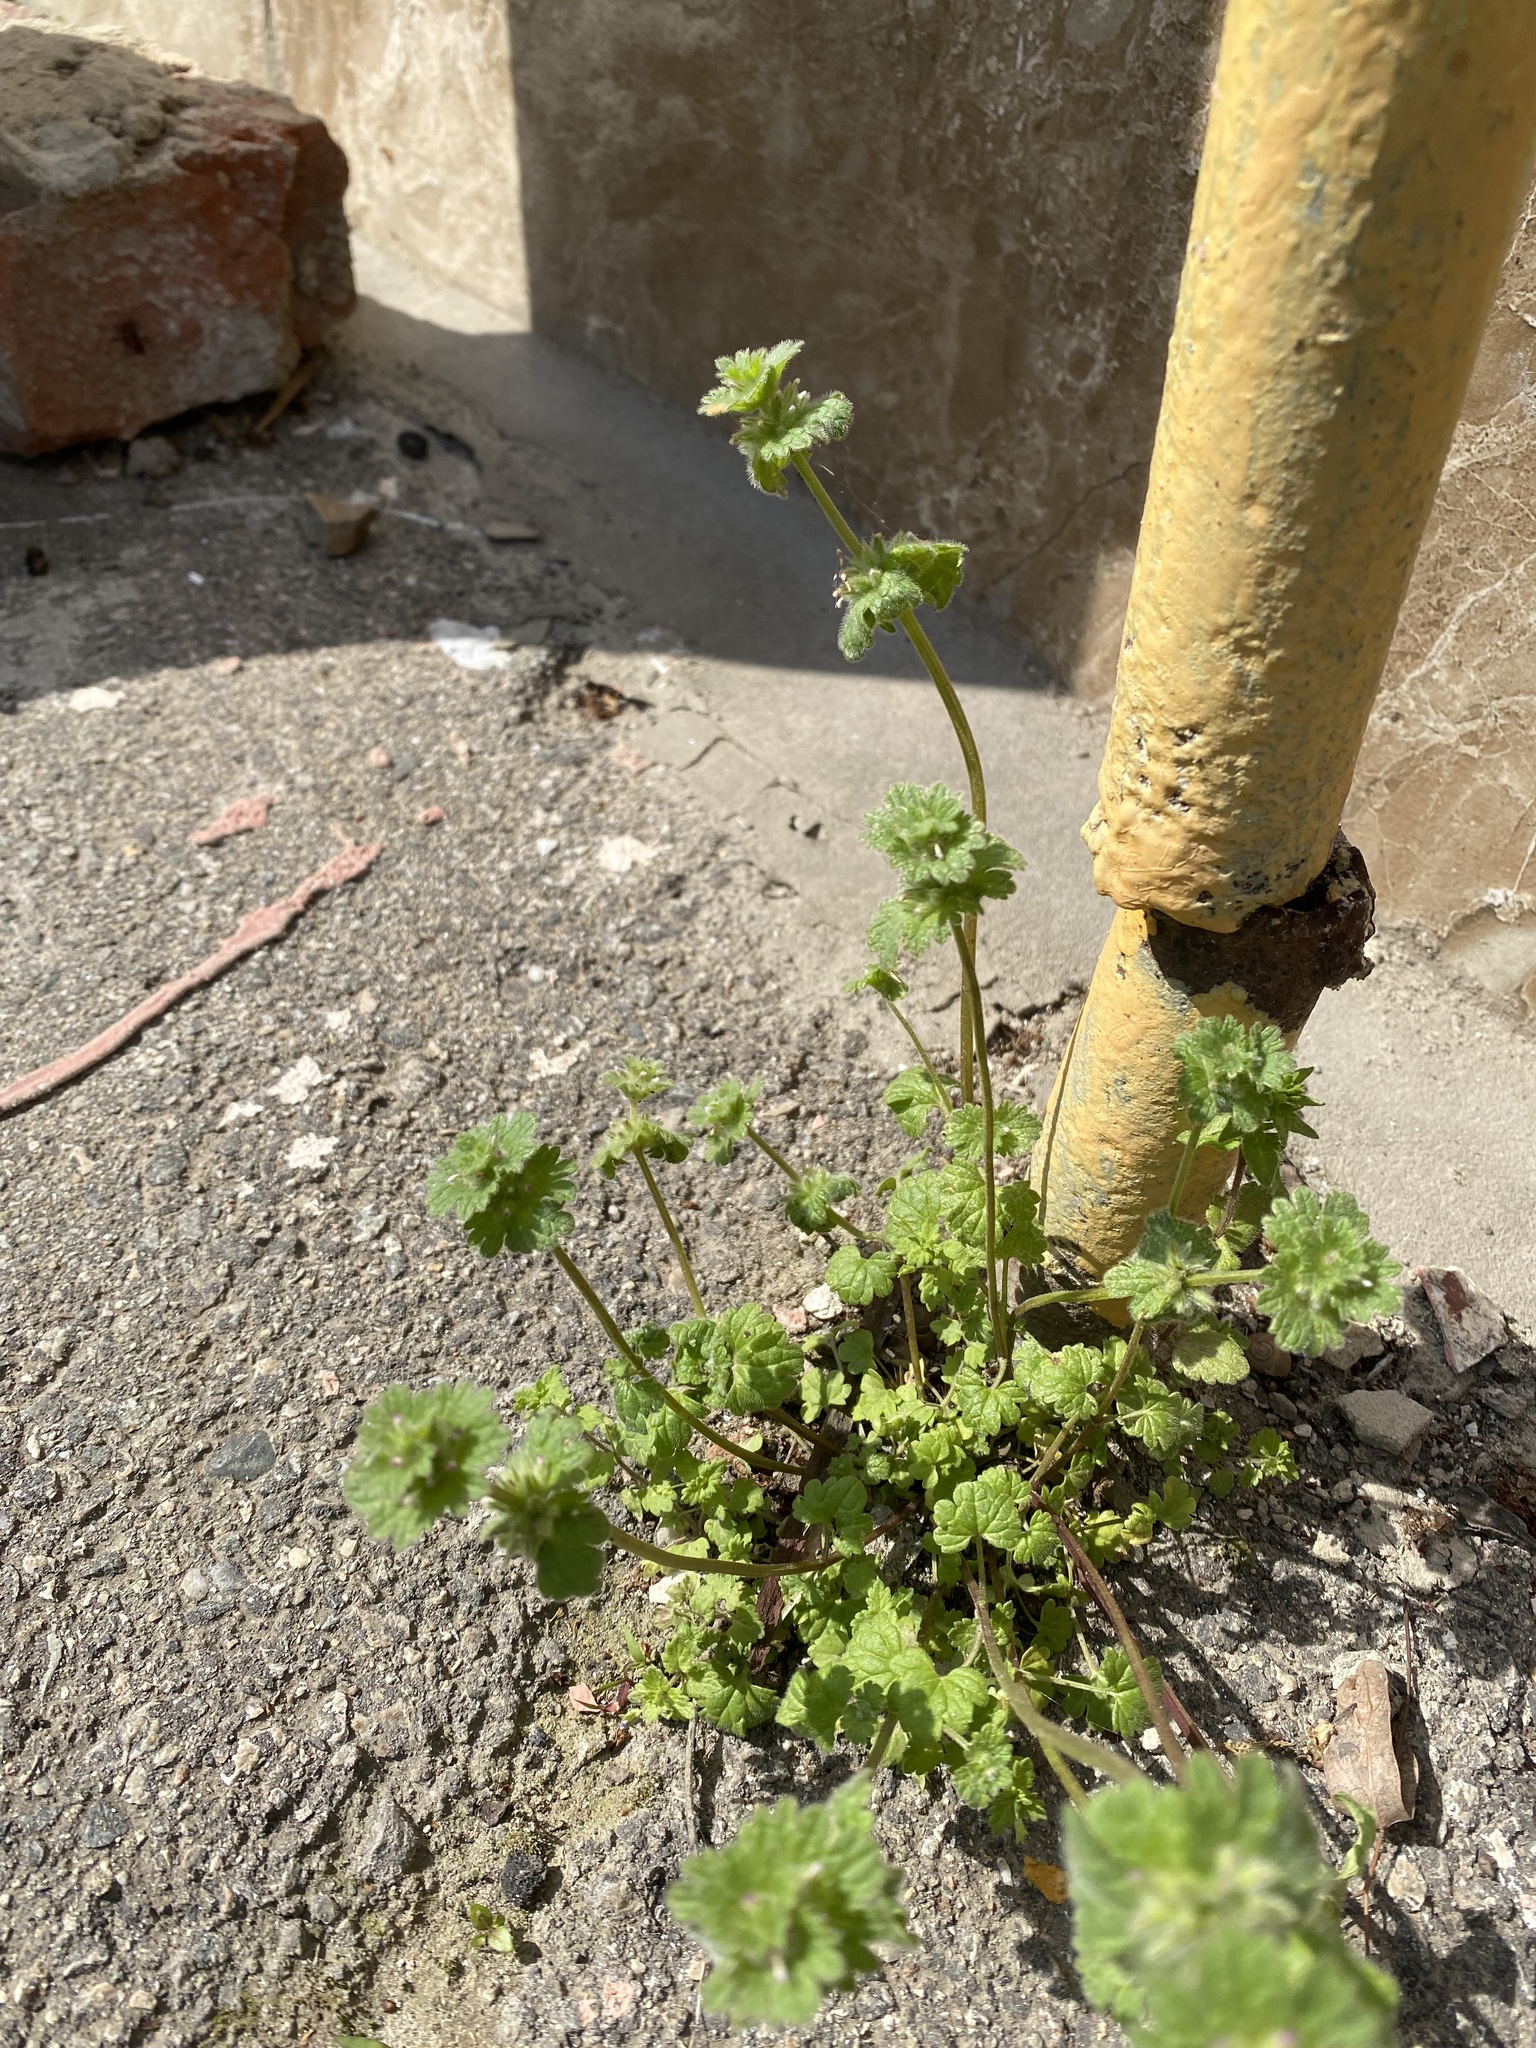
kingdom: Plantae
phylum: Tracheophyta
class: Magnoliopsida
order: Lamiales
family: Lamiaceae
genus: Lamium
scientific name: Lamium amplexicaule
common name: Henbit dead-nettle
